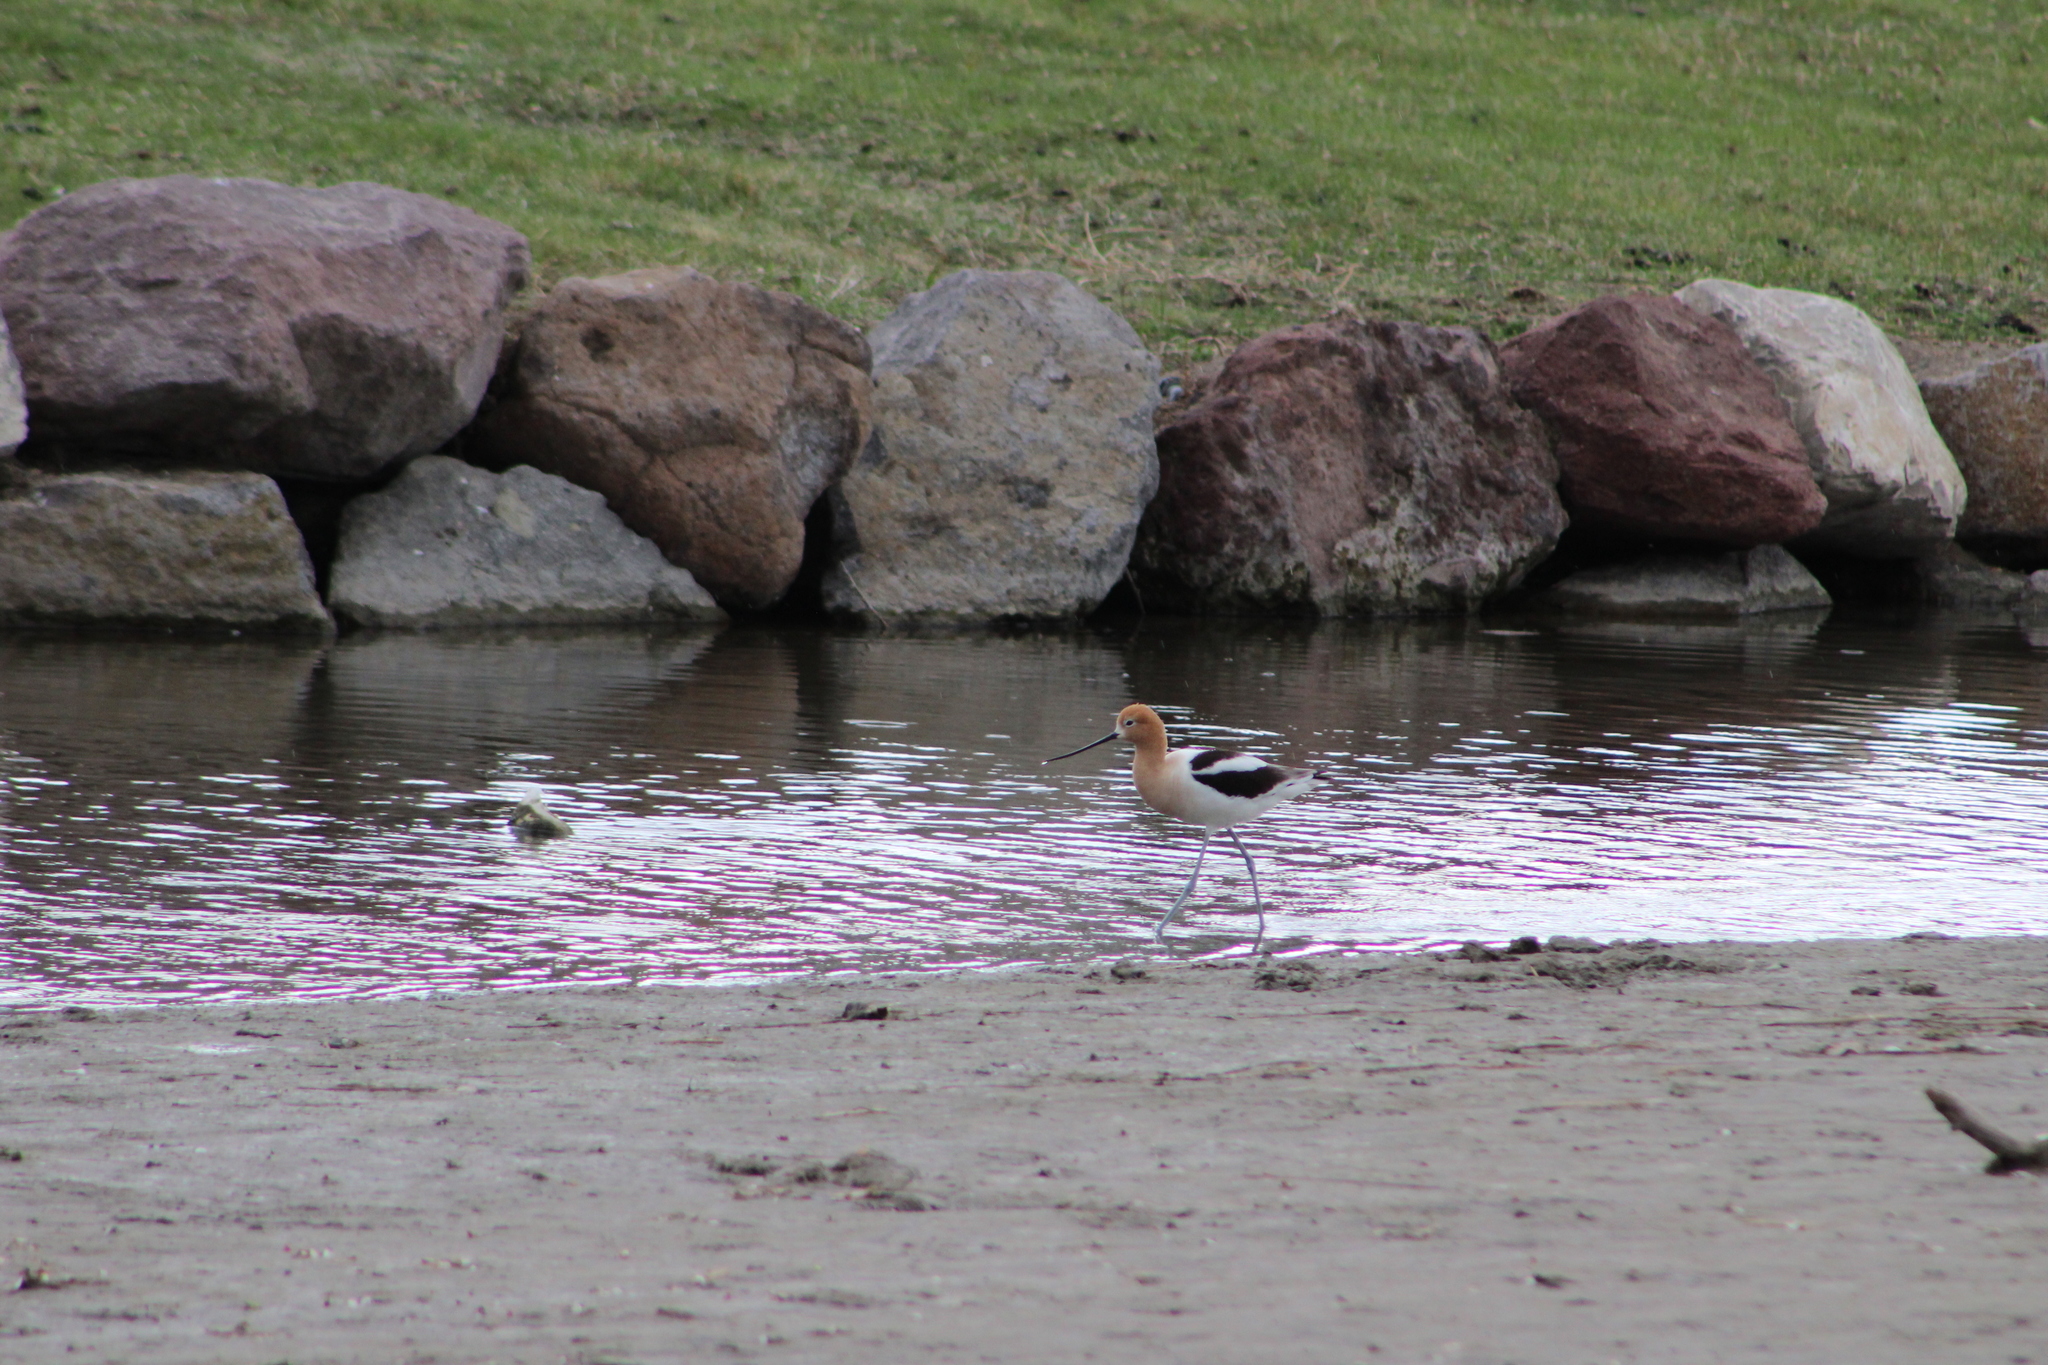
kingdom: Animalia
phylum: Chordata
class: Aves
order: Charadriiformes
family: Recurvirostridae
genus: Recurvirostra
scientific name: Recurvirostra americana
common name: American avocet
